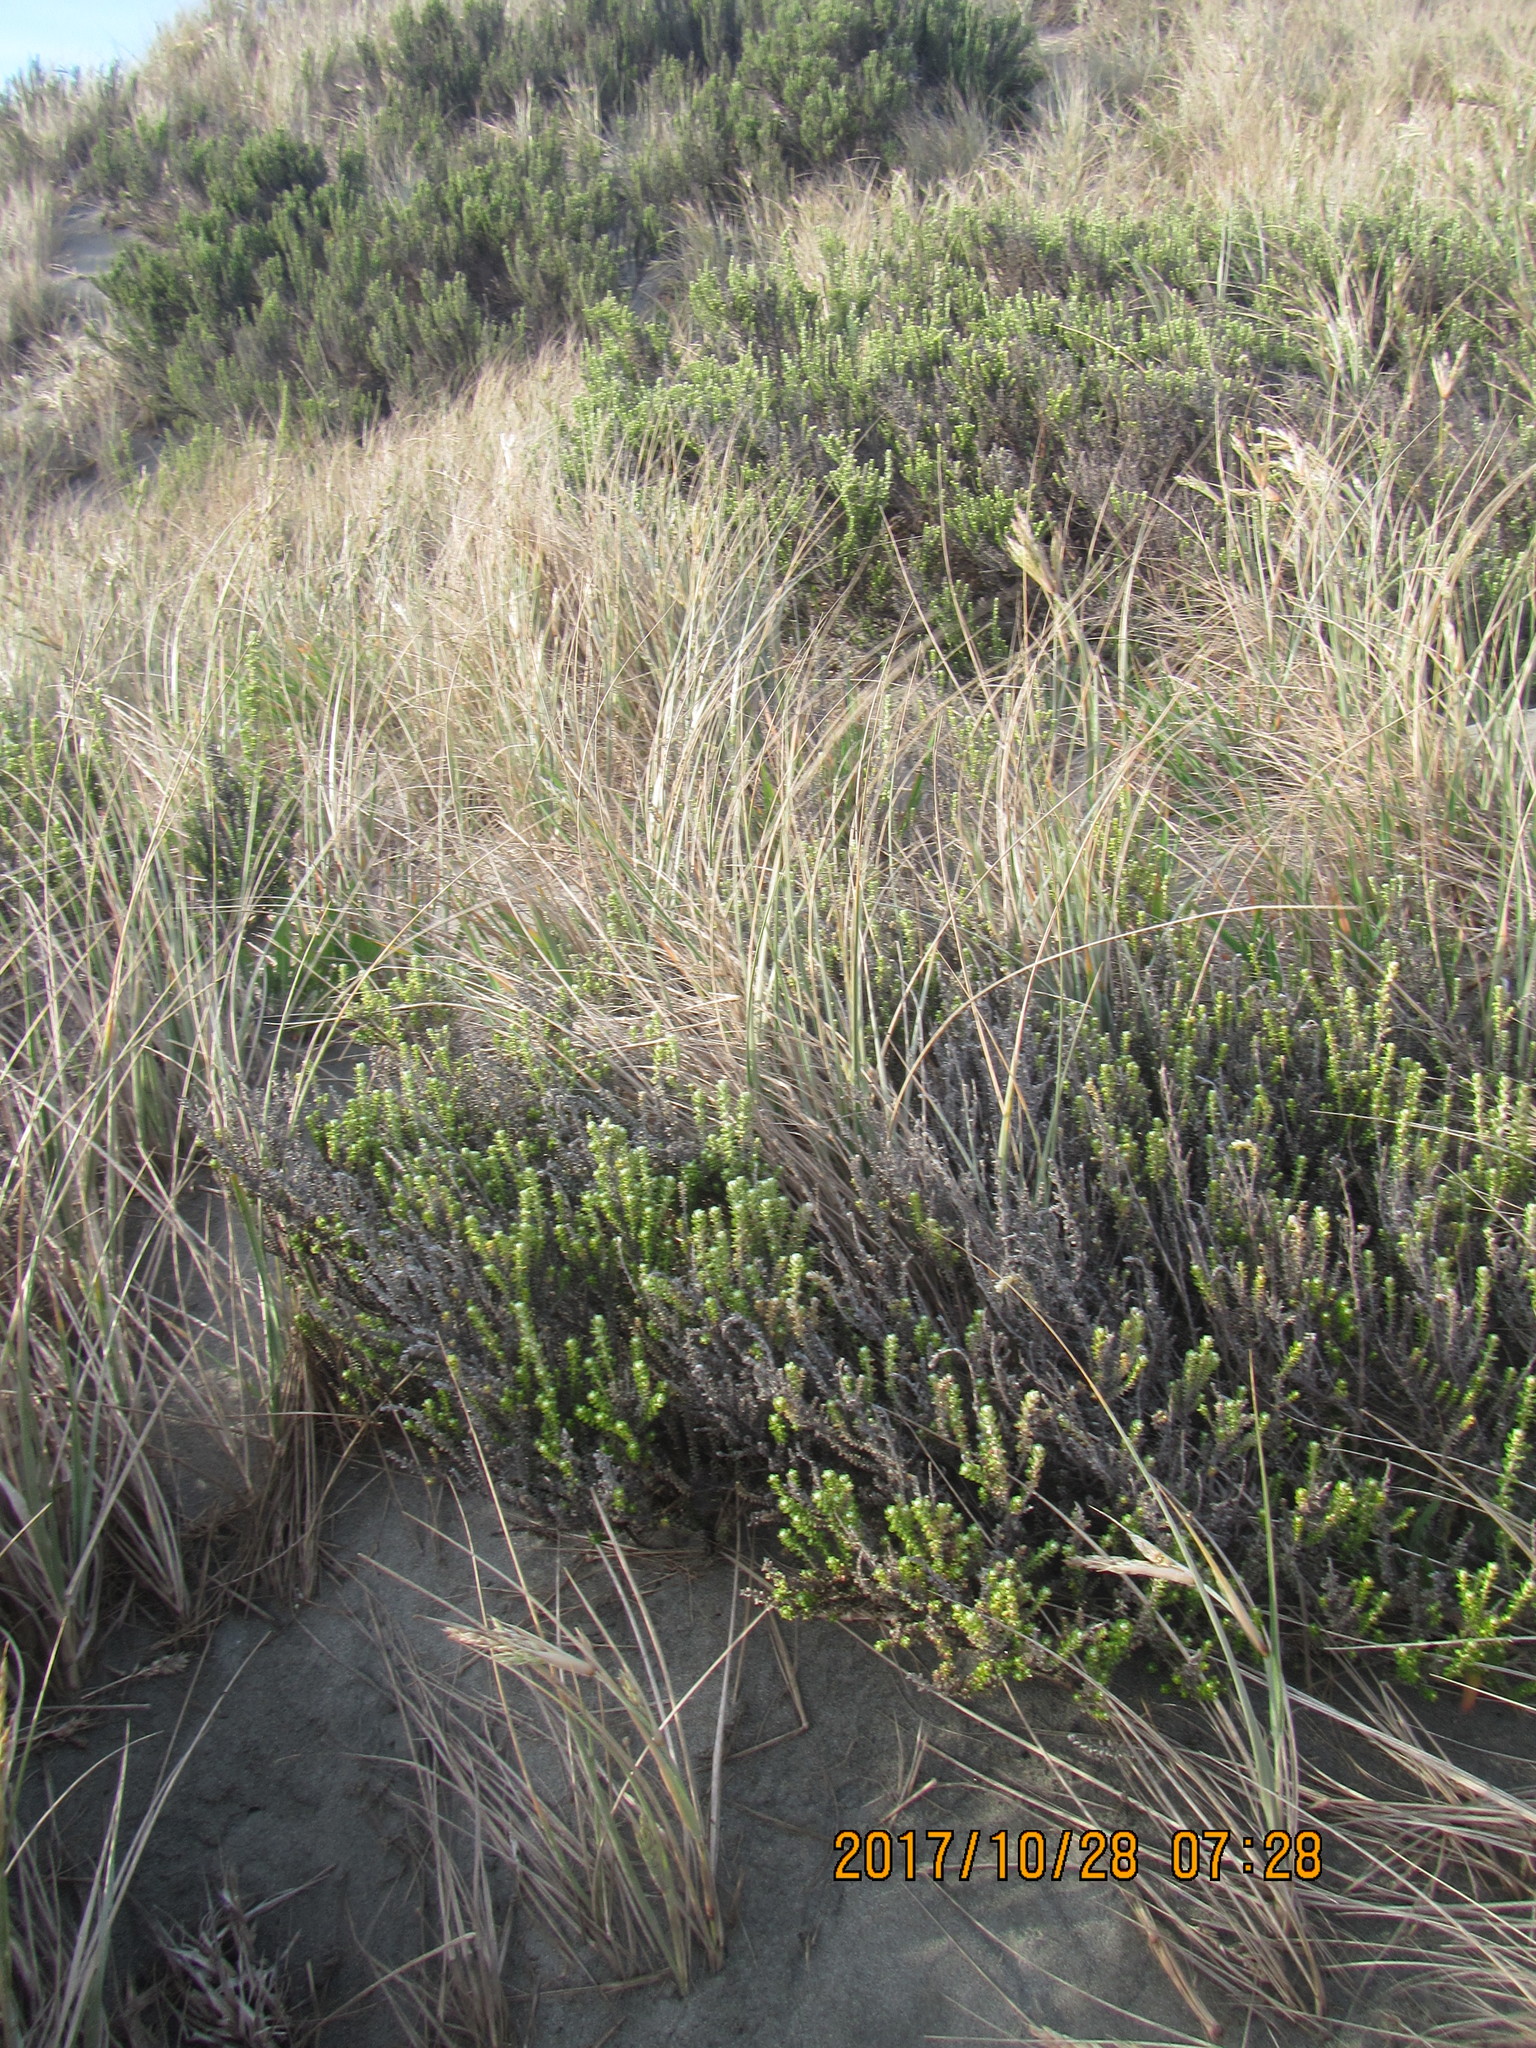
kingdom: Plantae
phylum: Tracheophyta
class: Magnoliopsida
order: Asterales
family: Asteraceae
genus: Ozothamnus
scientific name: Ozothamnus leptophyllus
